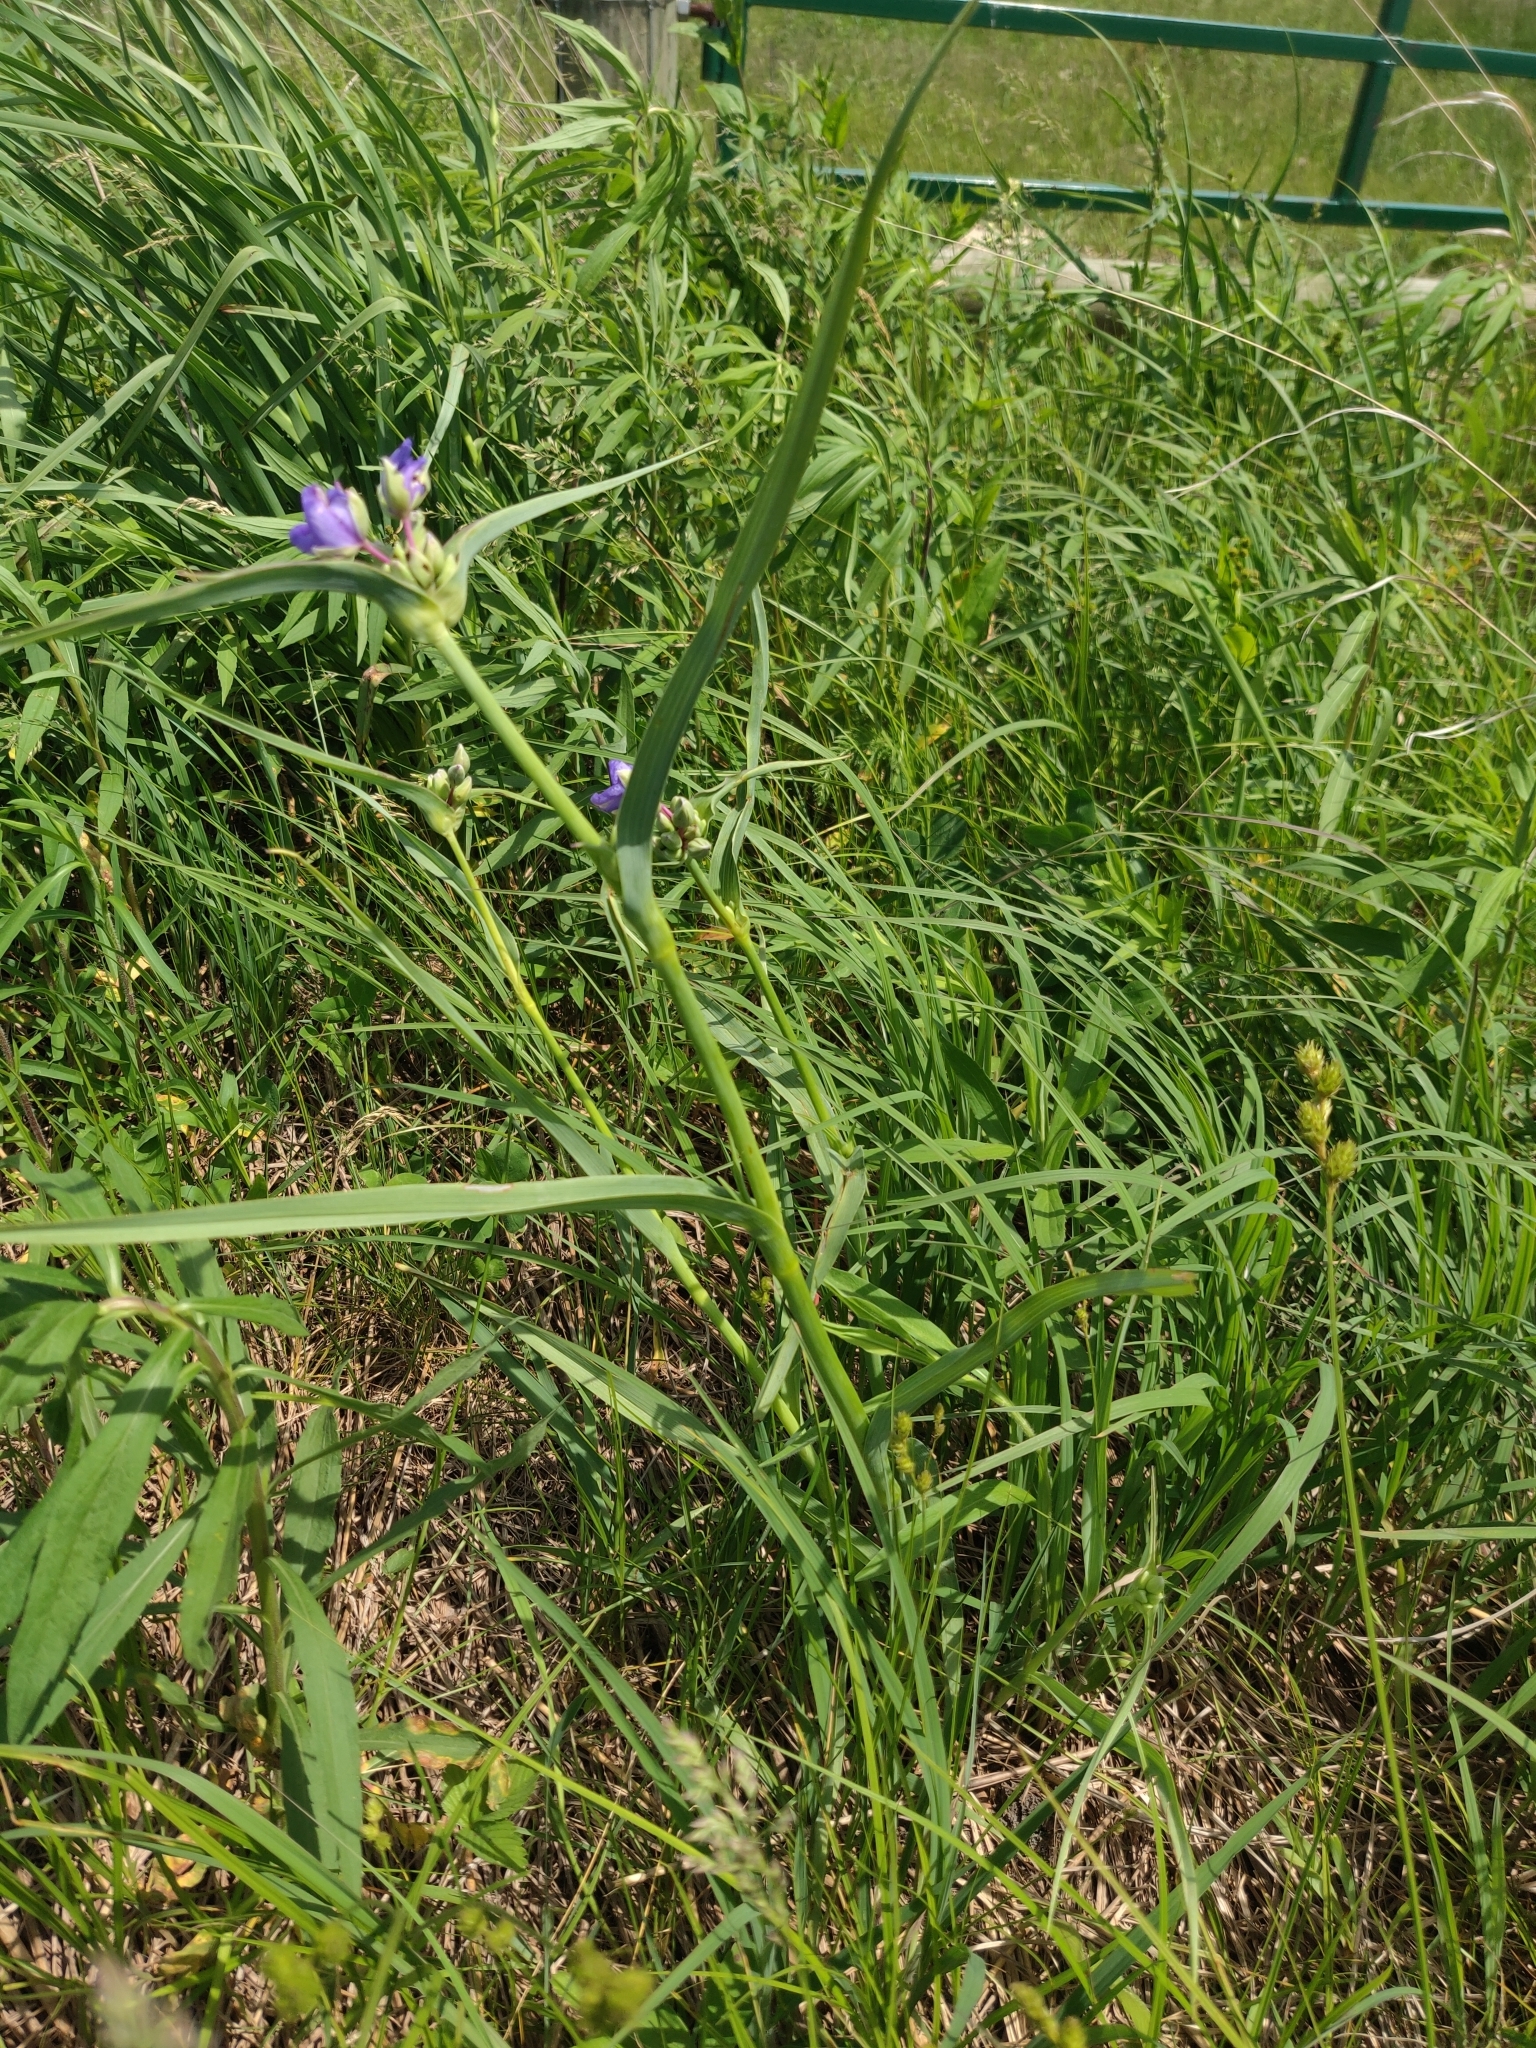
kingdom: Plantae
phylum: Tracheophyta
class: Liliopsida
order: Commelinales
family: Commelinaceae
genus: Tradescantia
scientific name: Tradescantia ohiensis
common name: Ohio spiderwort
